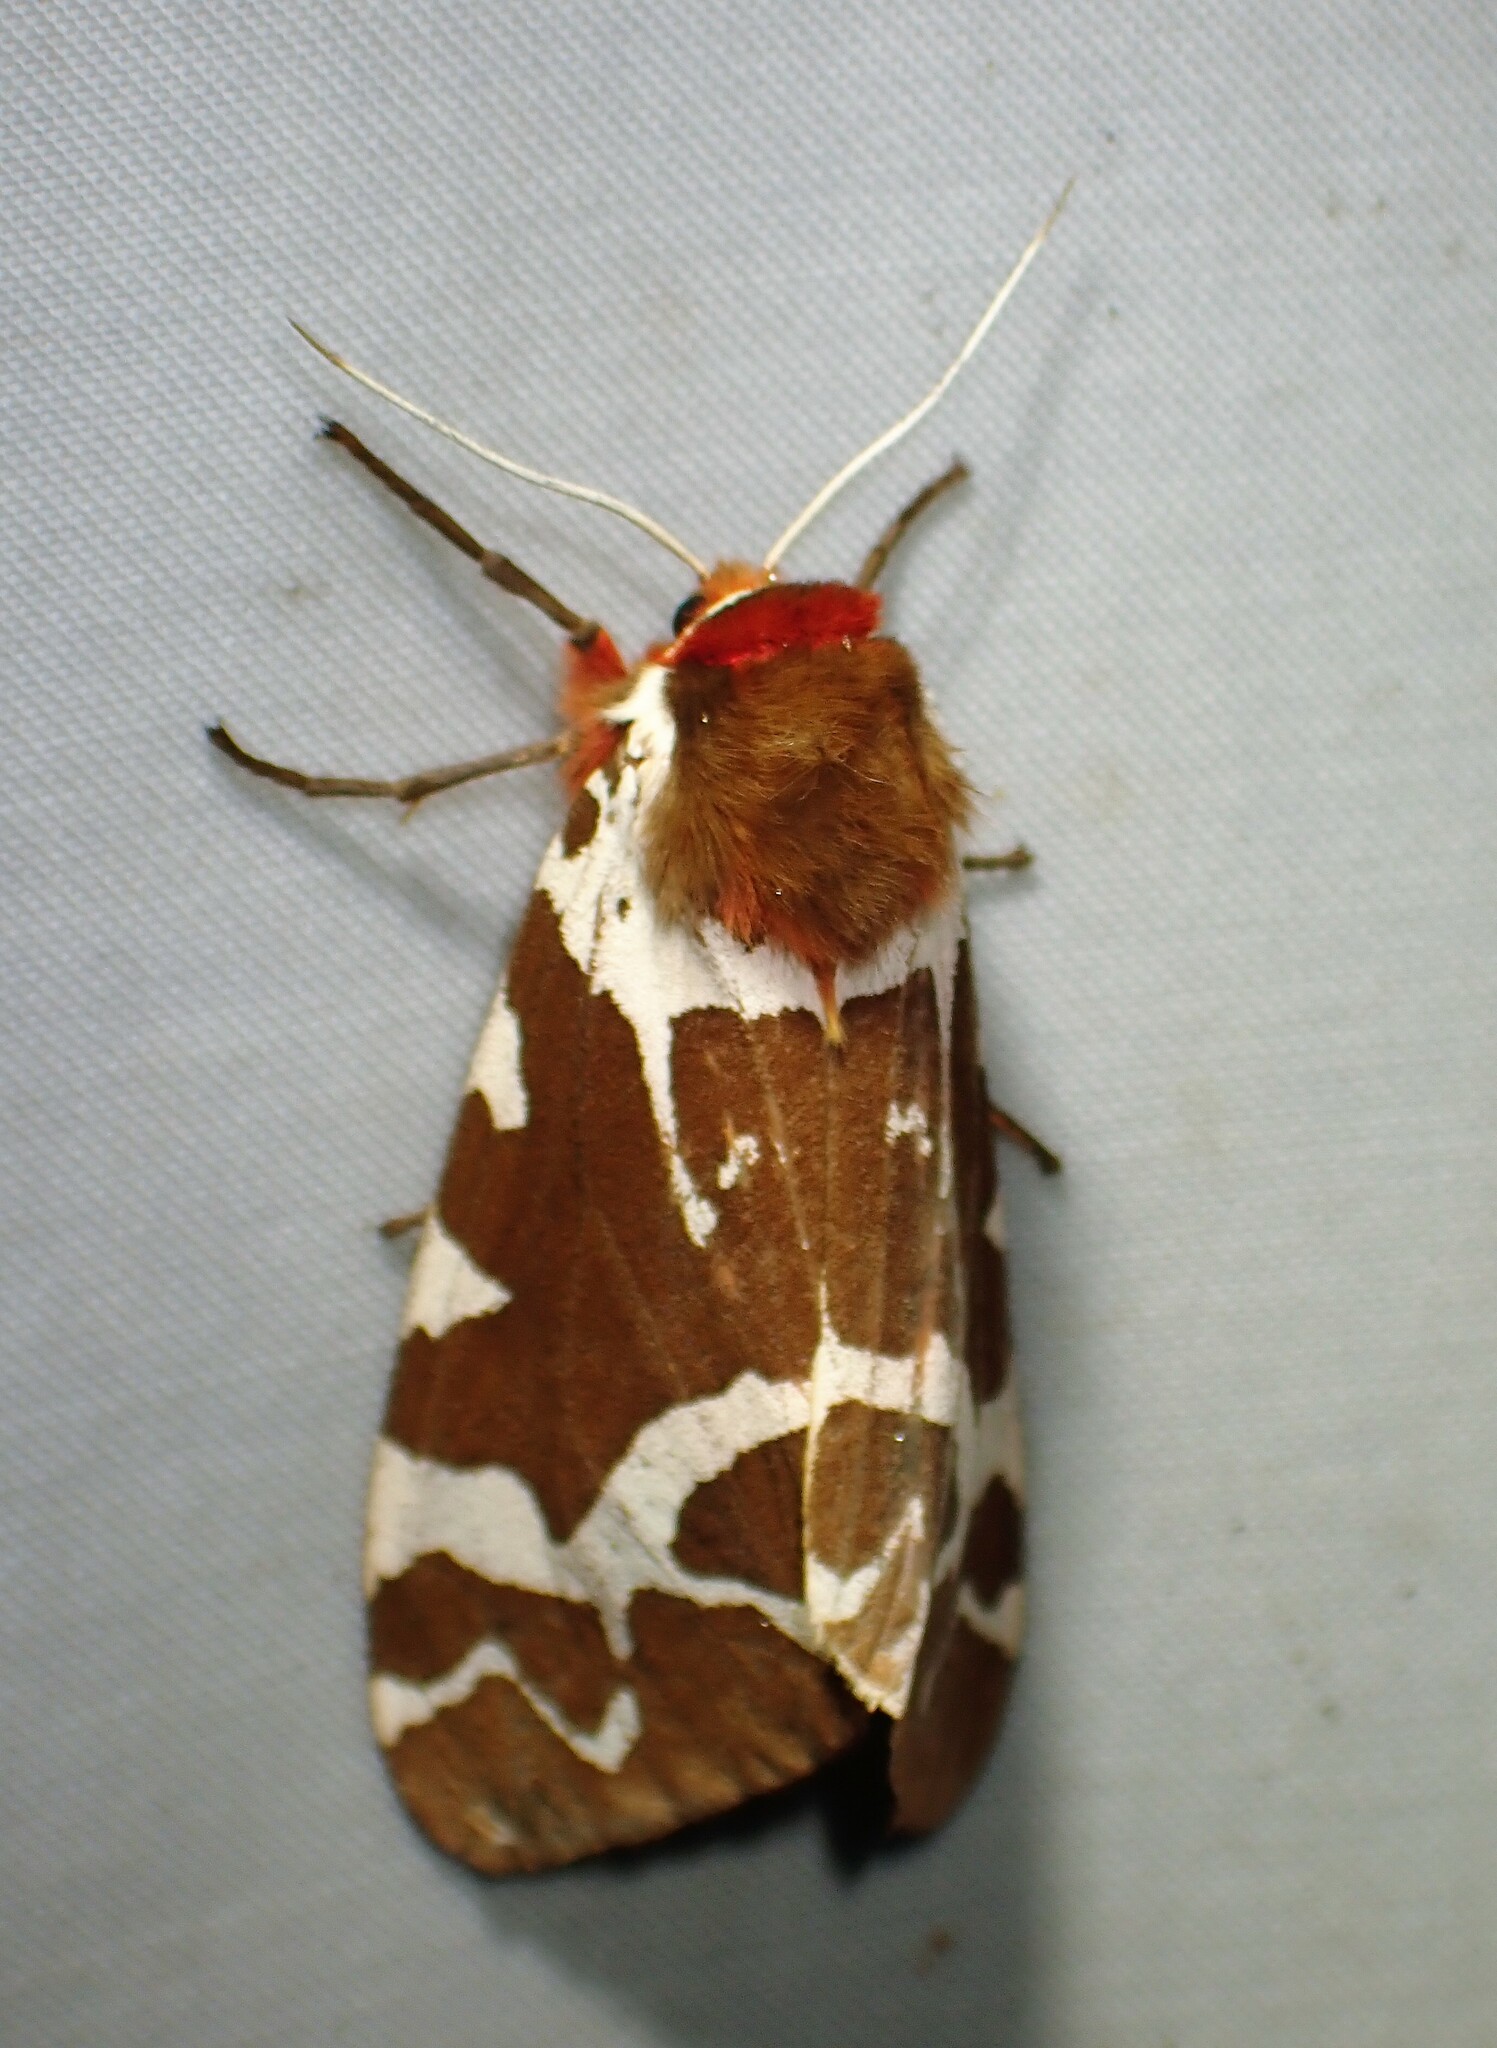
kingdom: Animalia
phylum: Arthropoda
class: Insecta
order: Lepidoptera
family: Erebidae
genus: Arctia
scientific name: Arctia caja
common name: Garden tiger
